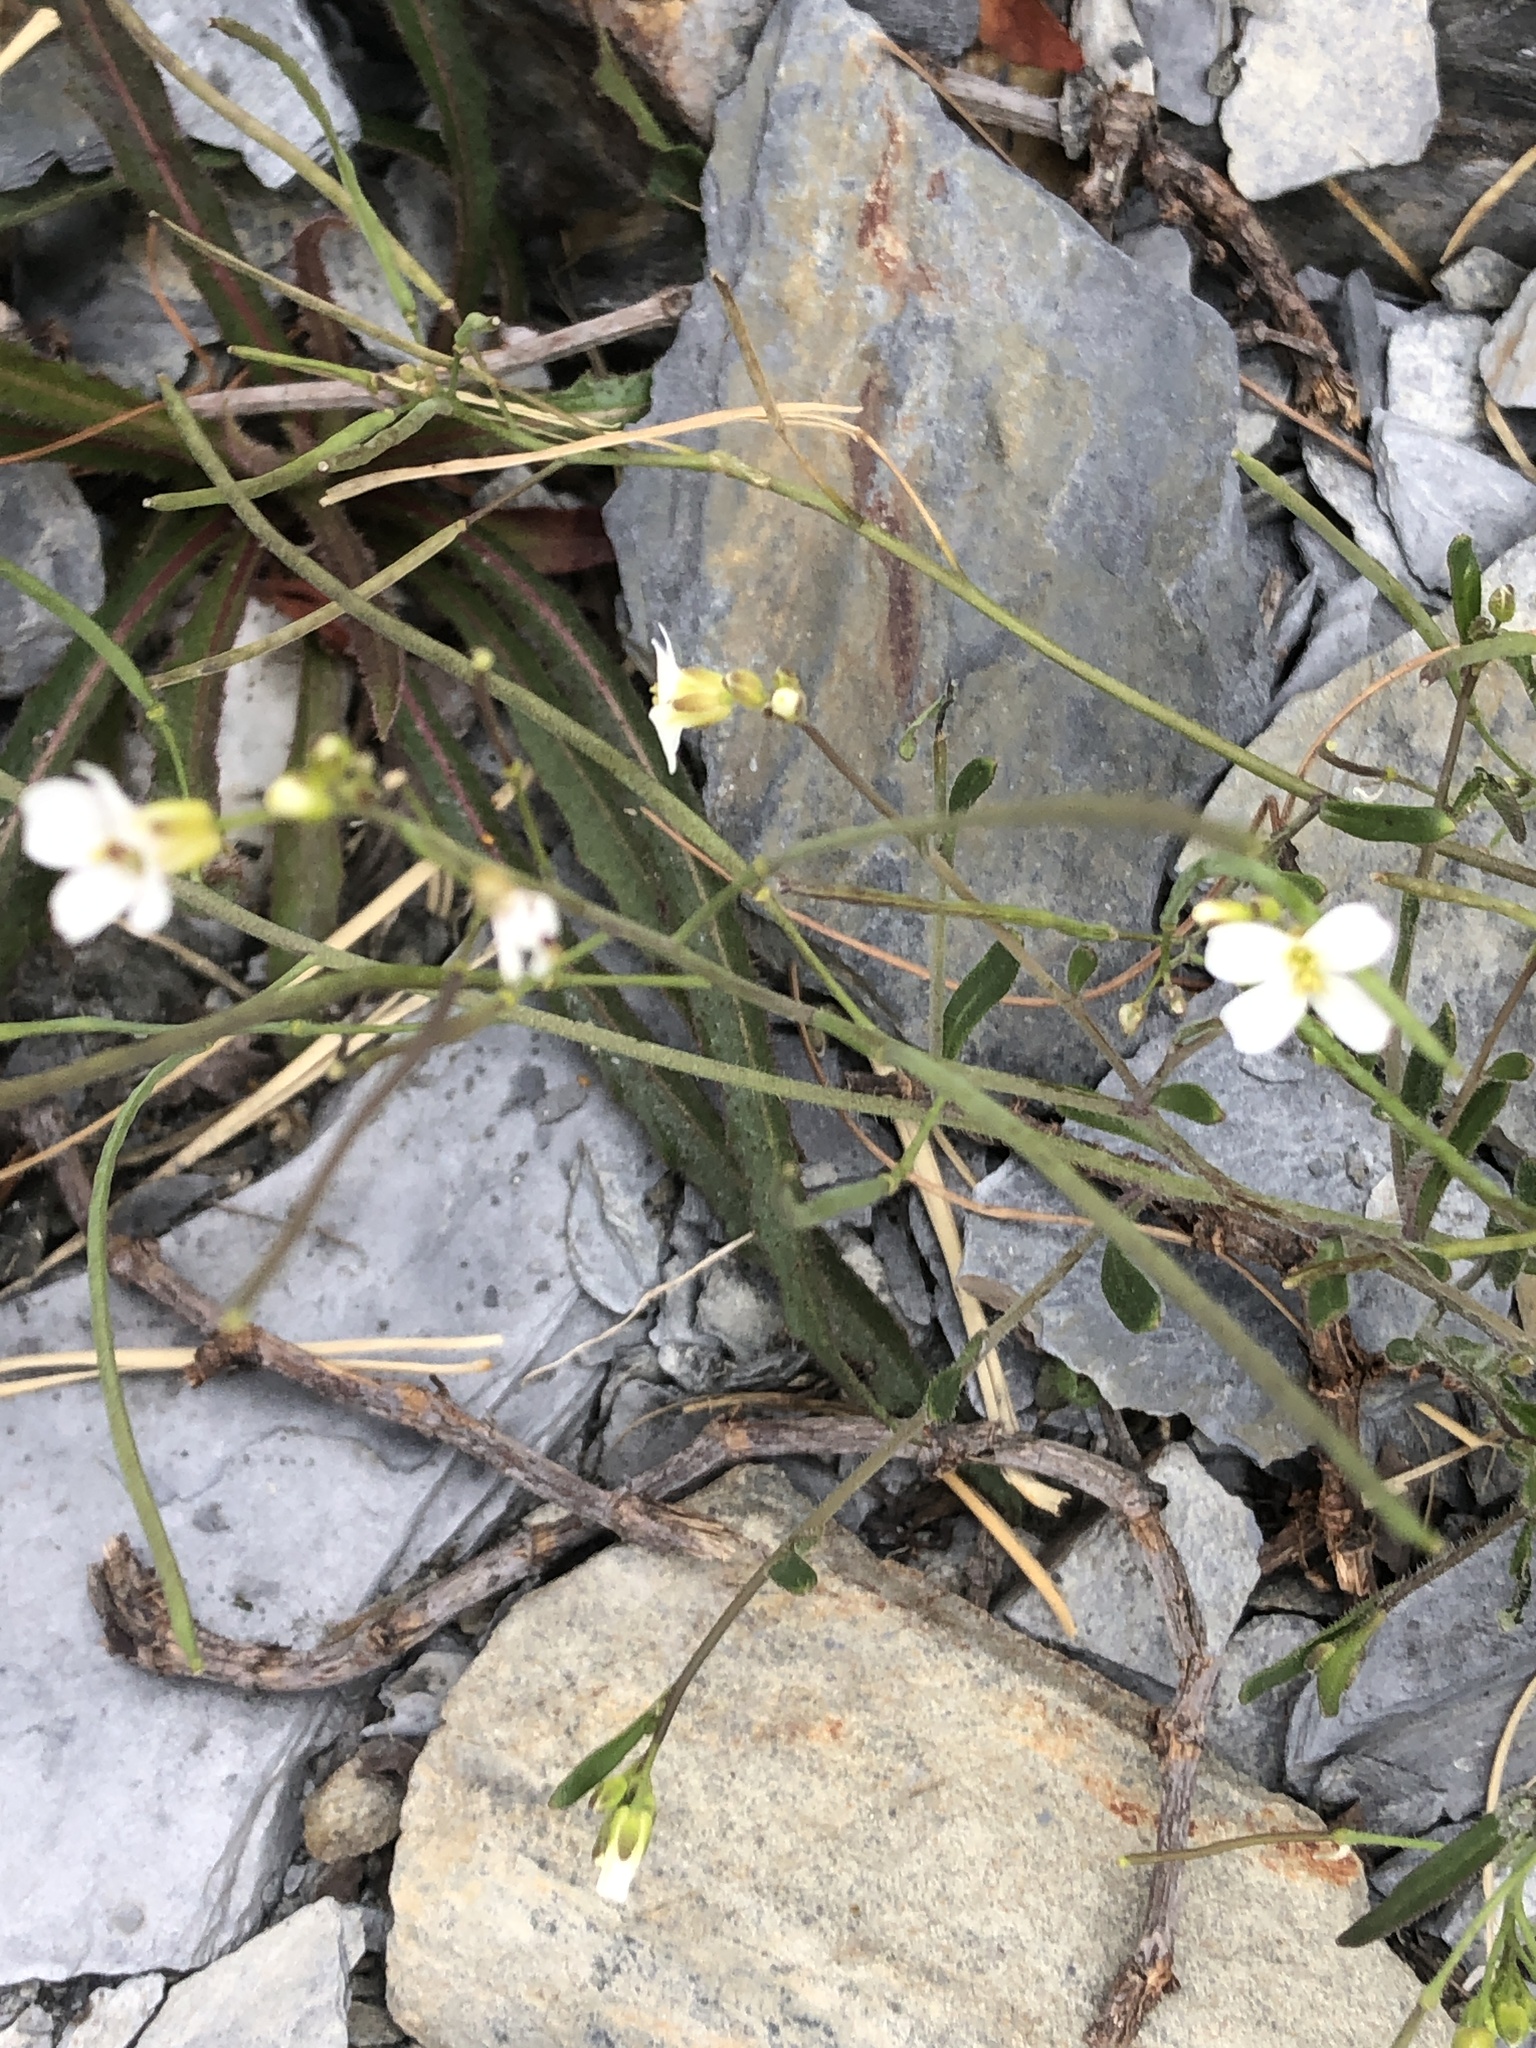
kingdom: Plantae
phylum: Tracheophyta
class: Magnoliopsida
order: Brassicales
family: Brassicaceae
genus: Arabidopsis
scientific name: Arabidopsis lyrata
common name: Lyrate rockcress
